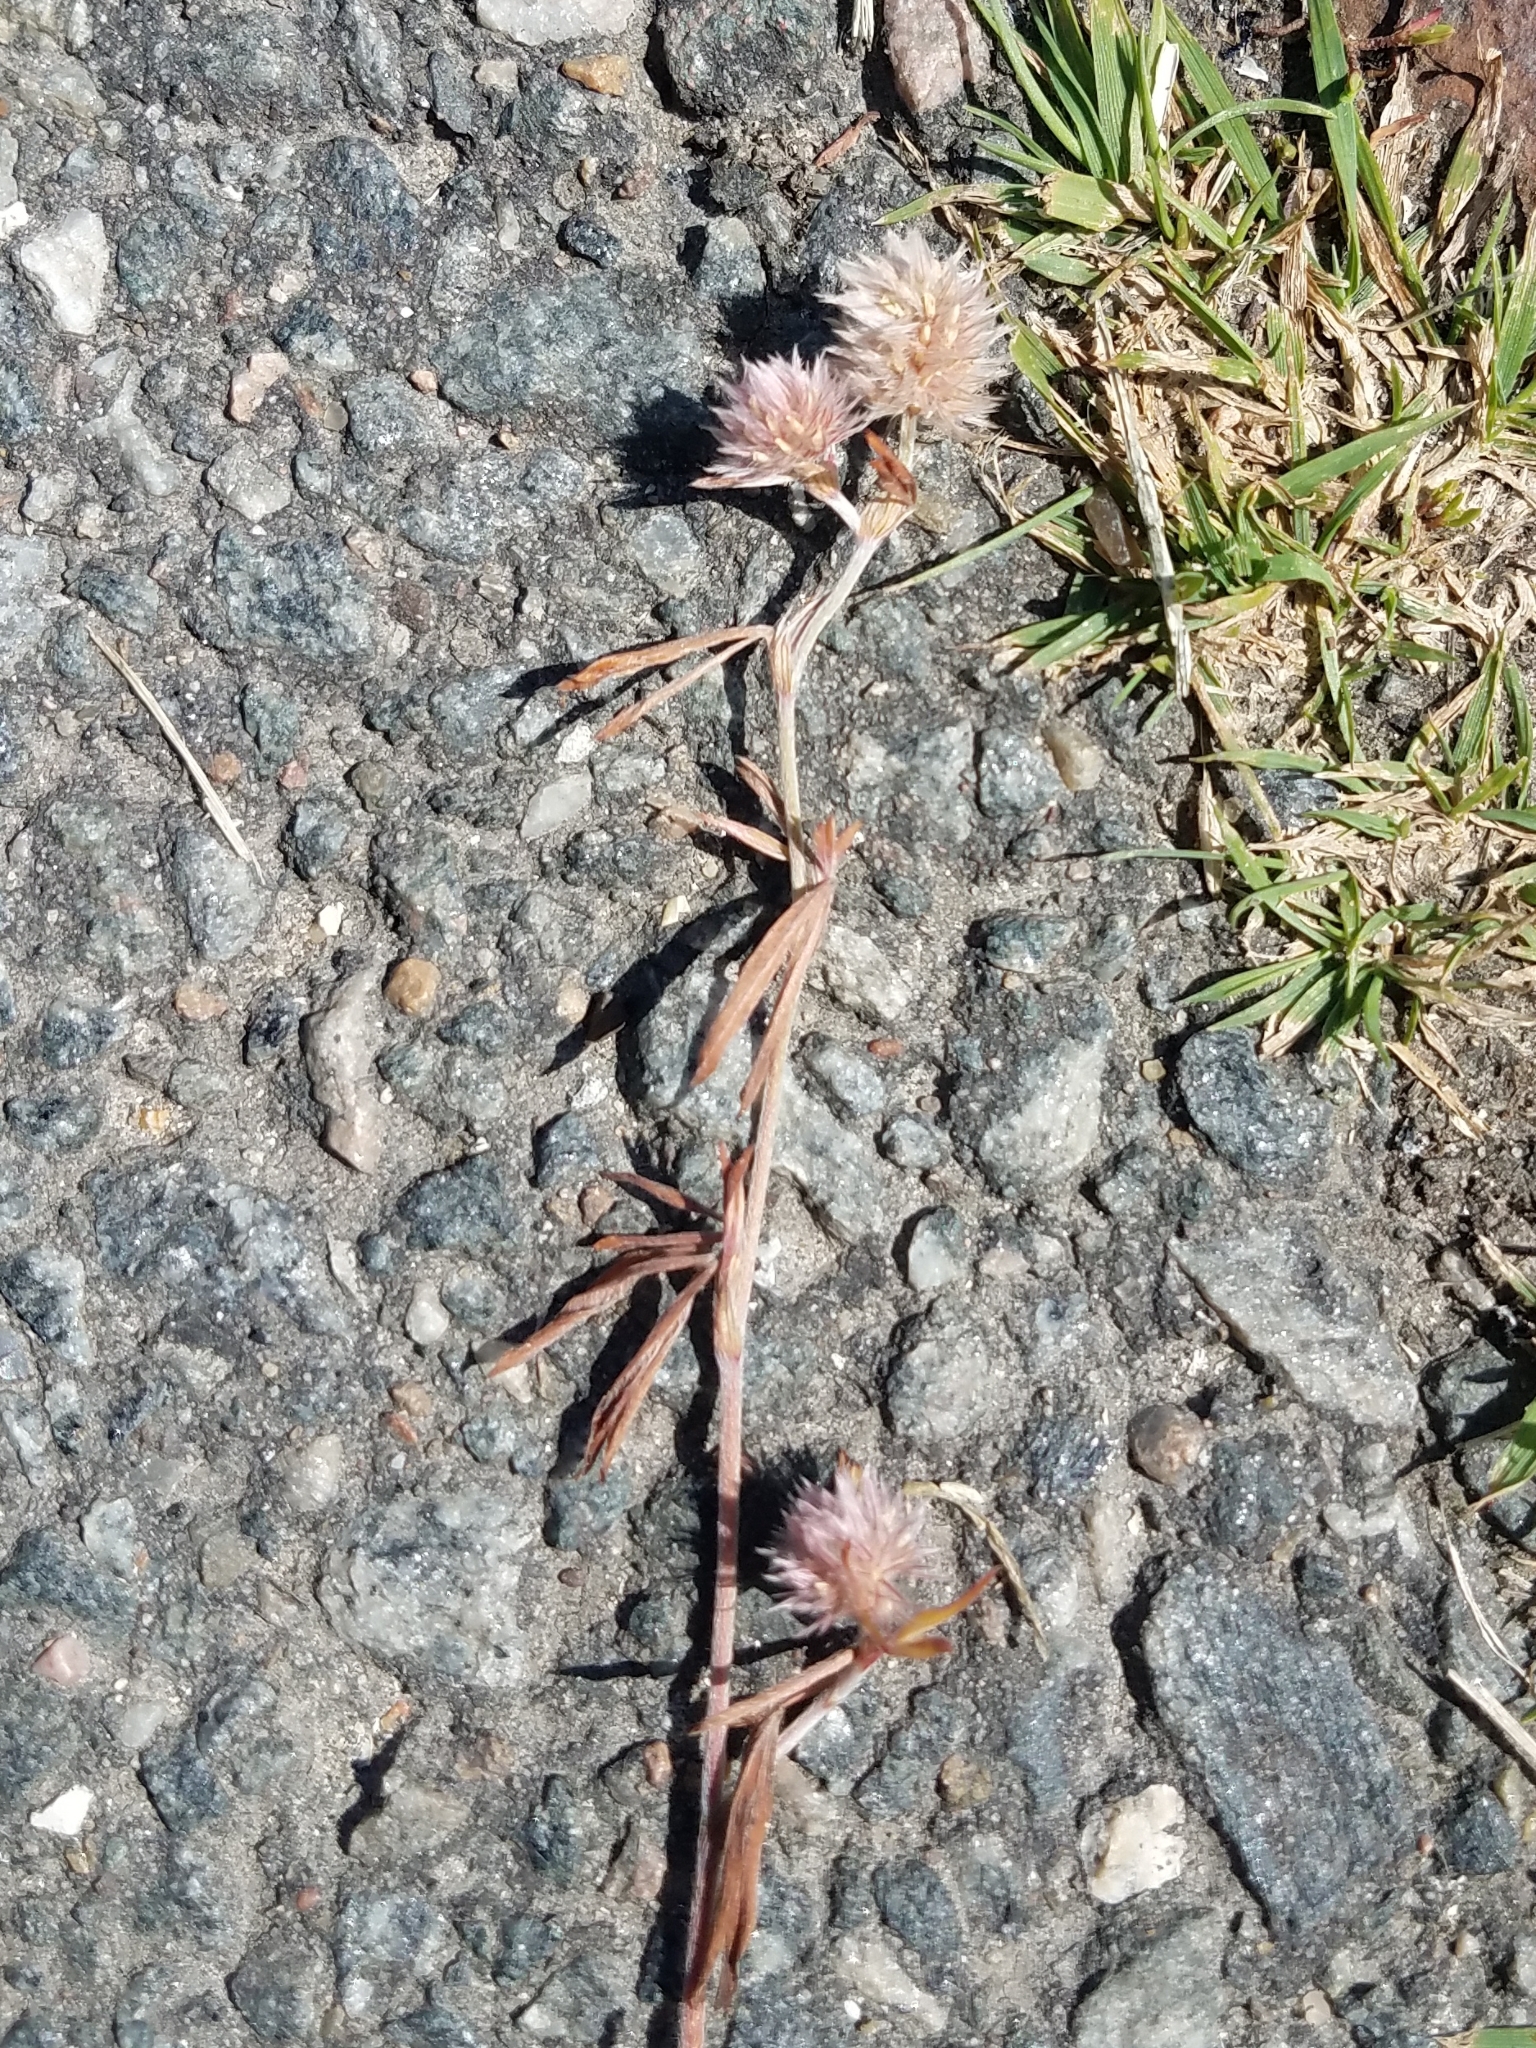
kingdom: Plantae
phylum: Tracheophyta
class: Magnoliopsida
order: Fabales
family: Fabaceae
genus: Trifolium
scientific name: Trifolium arvense
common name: Hare's-foot clover
